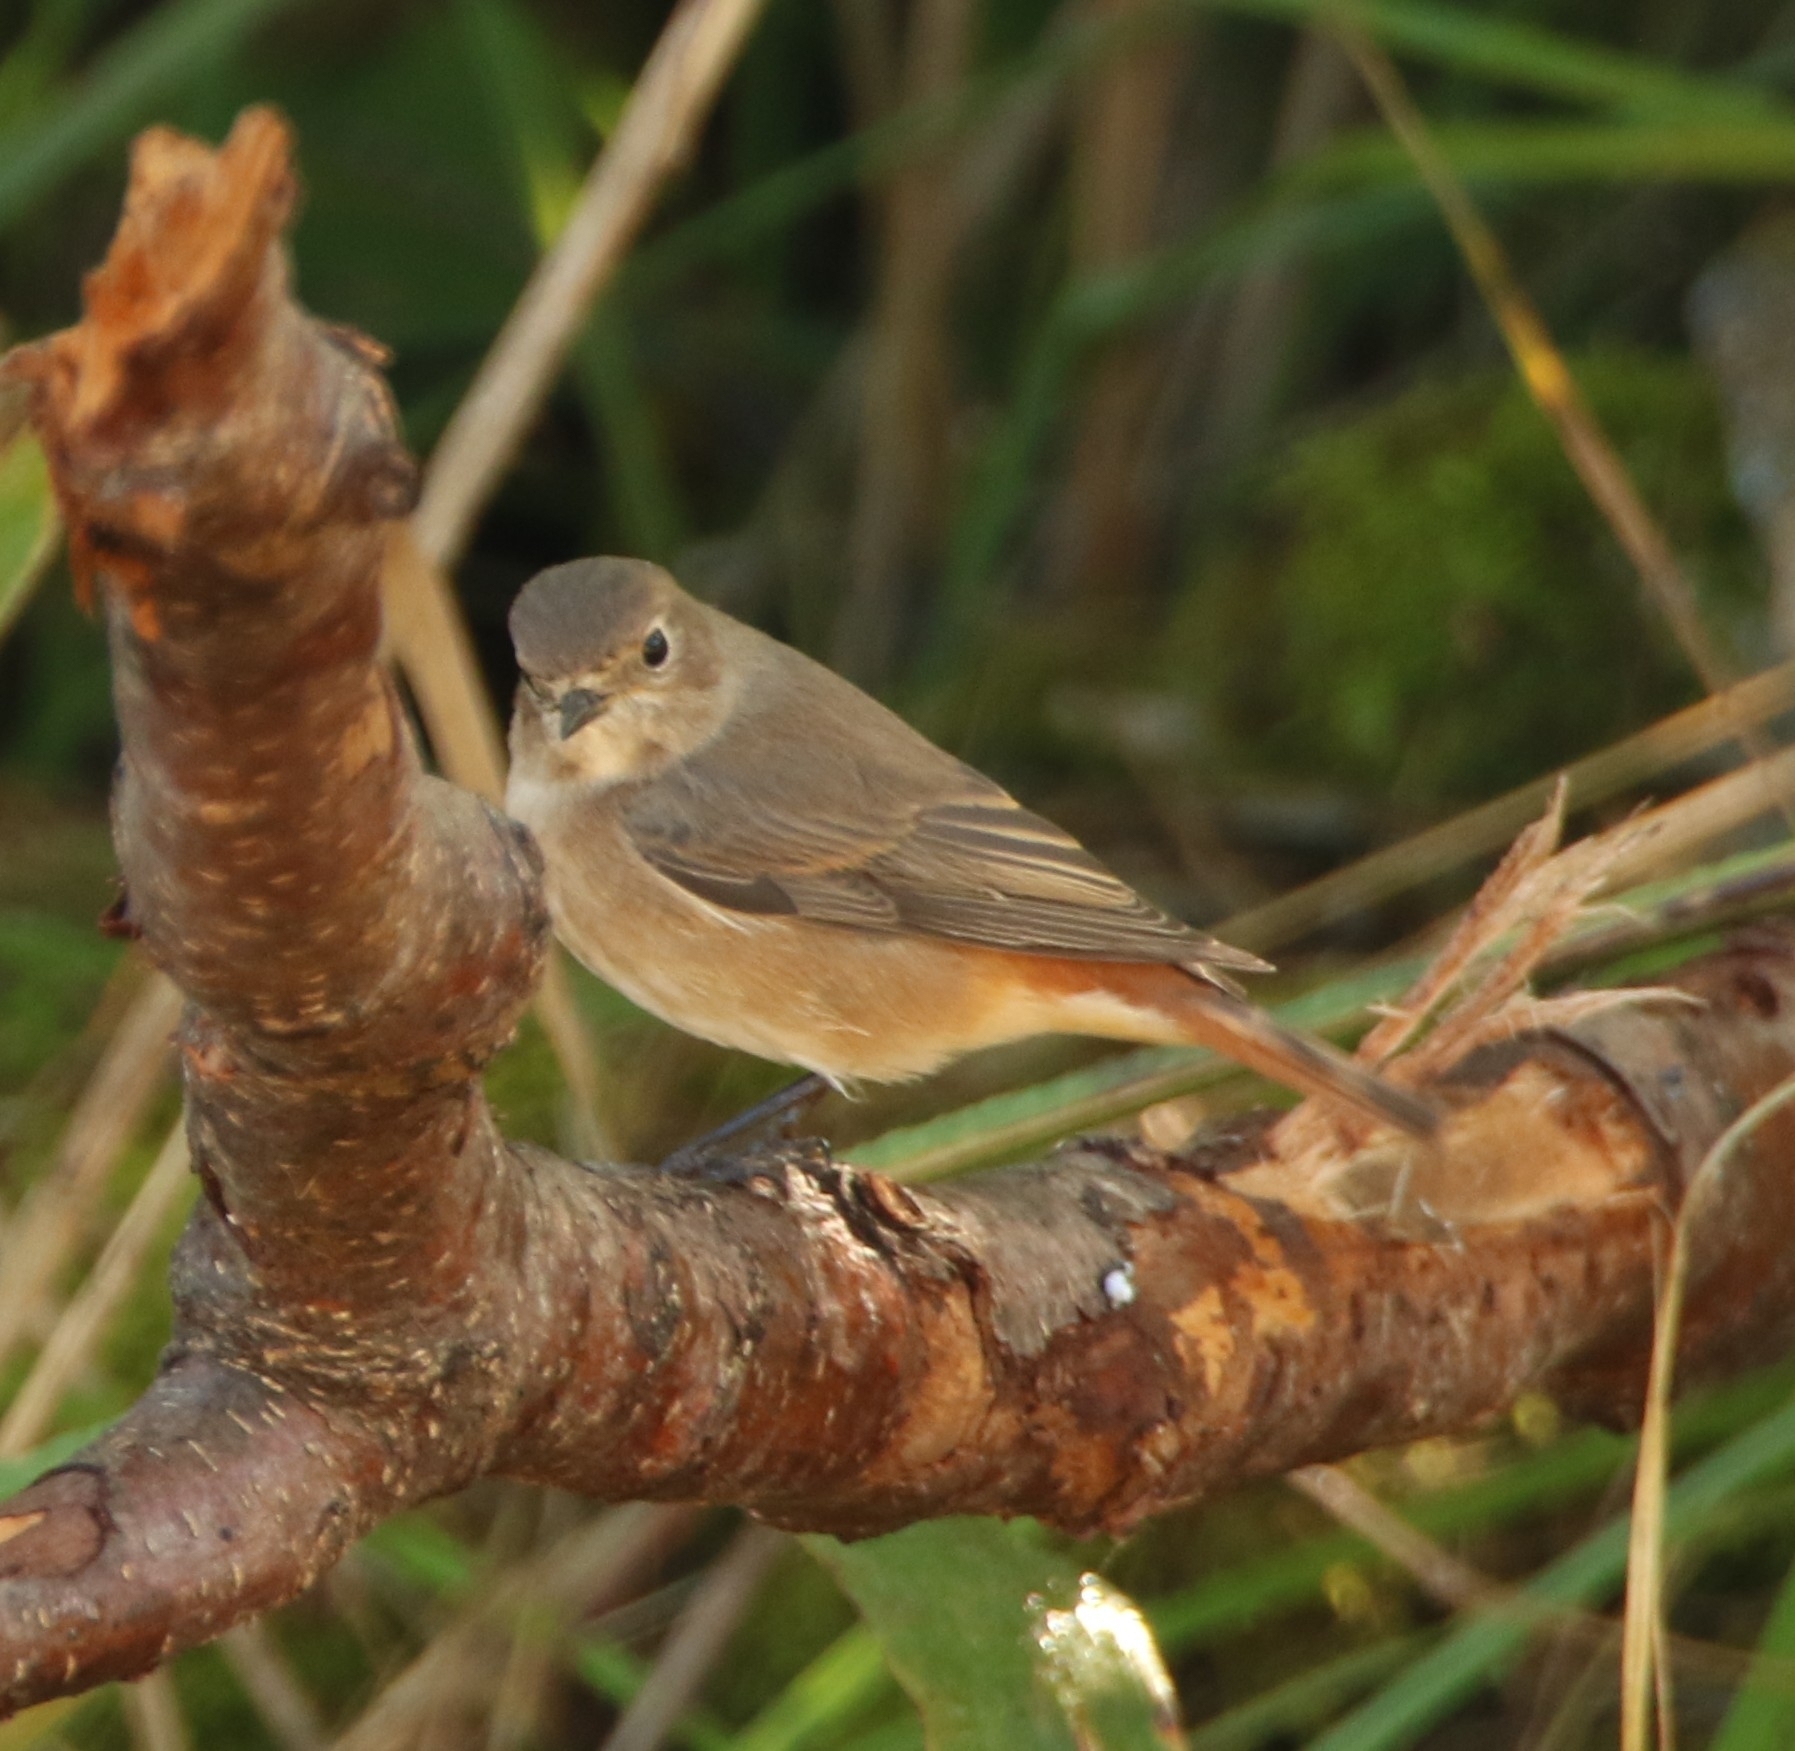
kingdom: Animalia
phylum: Chordata
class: Aves
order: Passeriformes
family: Muscicapidae
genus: Phoenicurus
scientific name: Phoenicurus phoenicurus
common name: Common redstart
